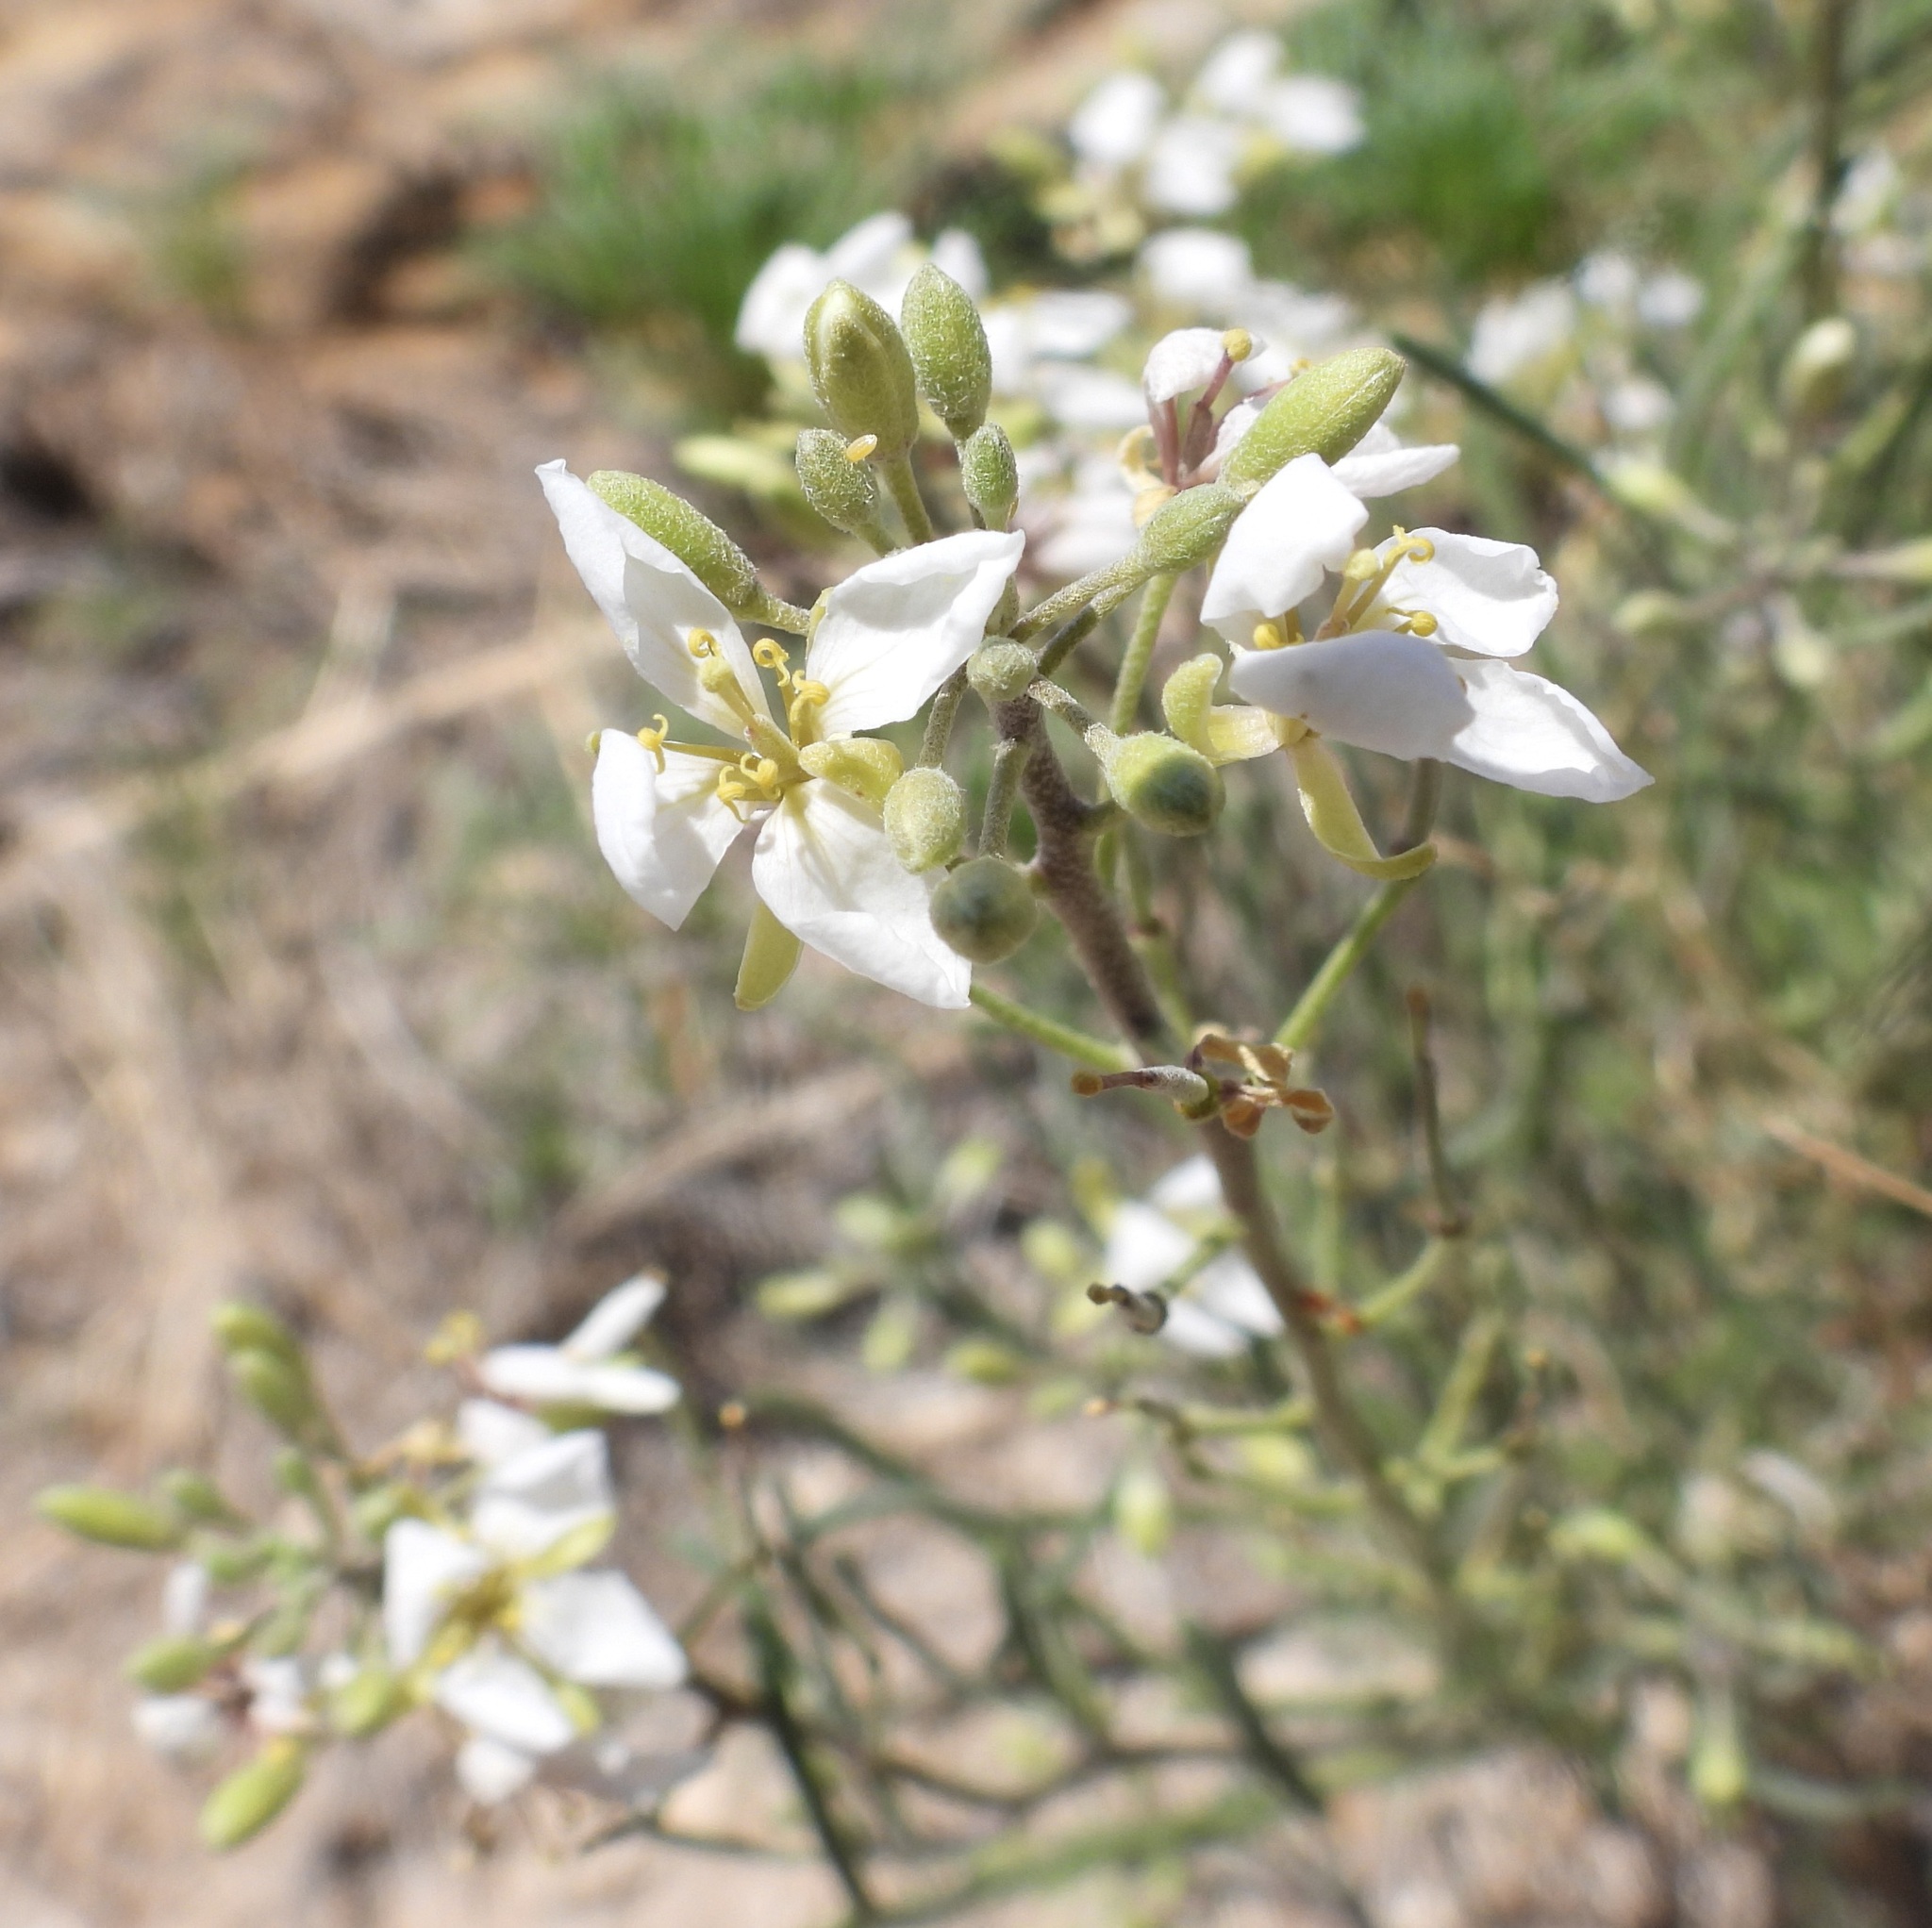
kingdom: Plantae
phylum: Tracheophyta
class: Magnoliopsida
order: Brassicales
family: Brassicaceae
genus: Nerisyrenia
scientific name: Nerisyrenia linearifolia
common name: White sands fan mustard
